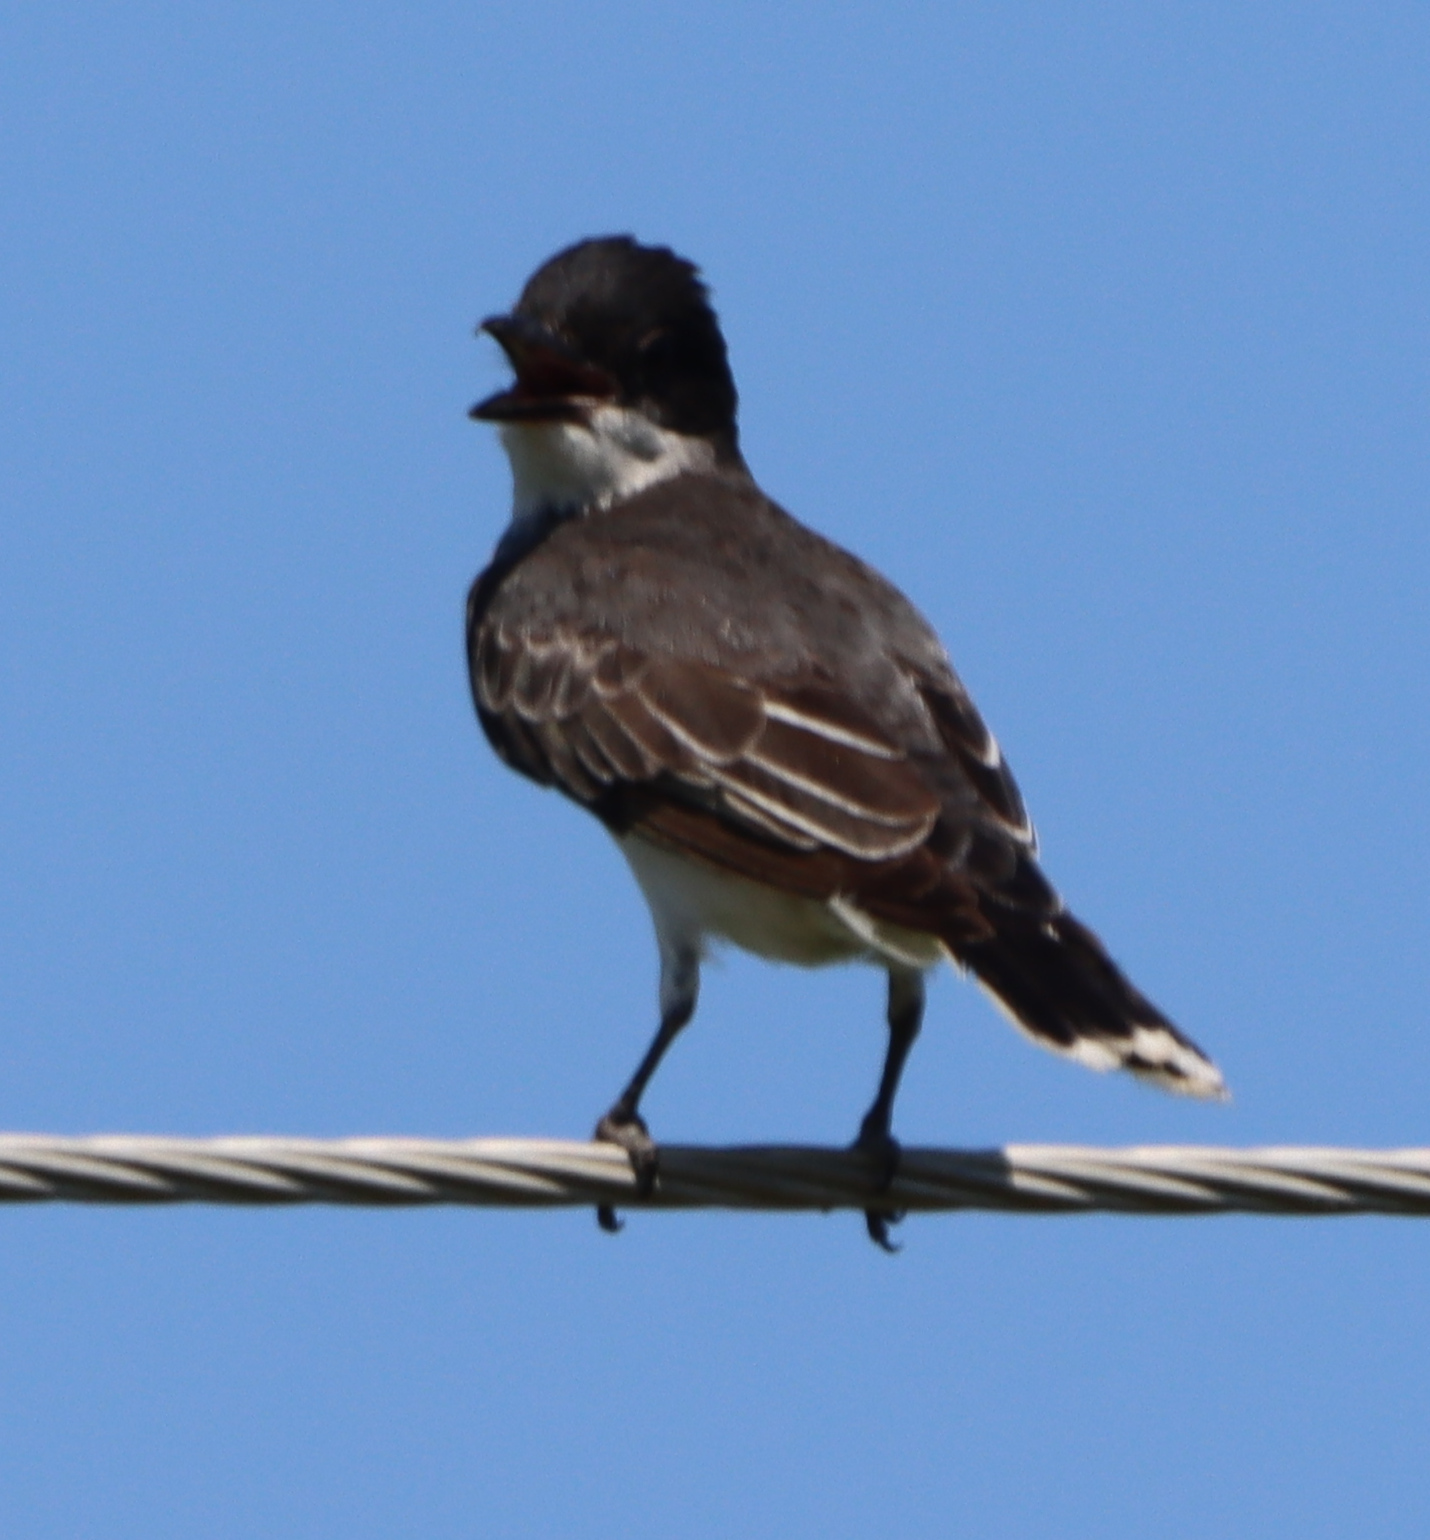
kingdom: Animalia
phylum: Chordata
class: Aves
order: Passeriformes
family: Tyrannidae
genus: Tyrannus
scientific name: Tyrannus tyrannus
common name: Eastern kingbird
